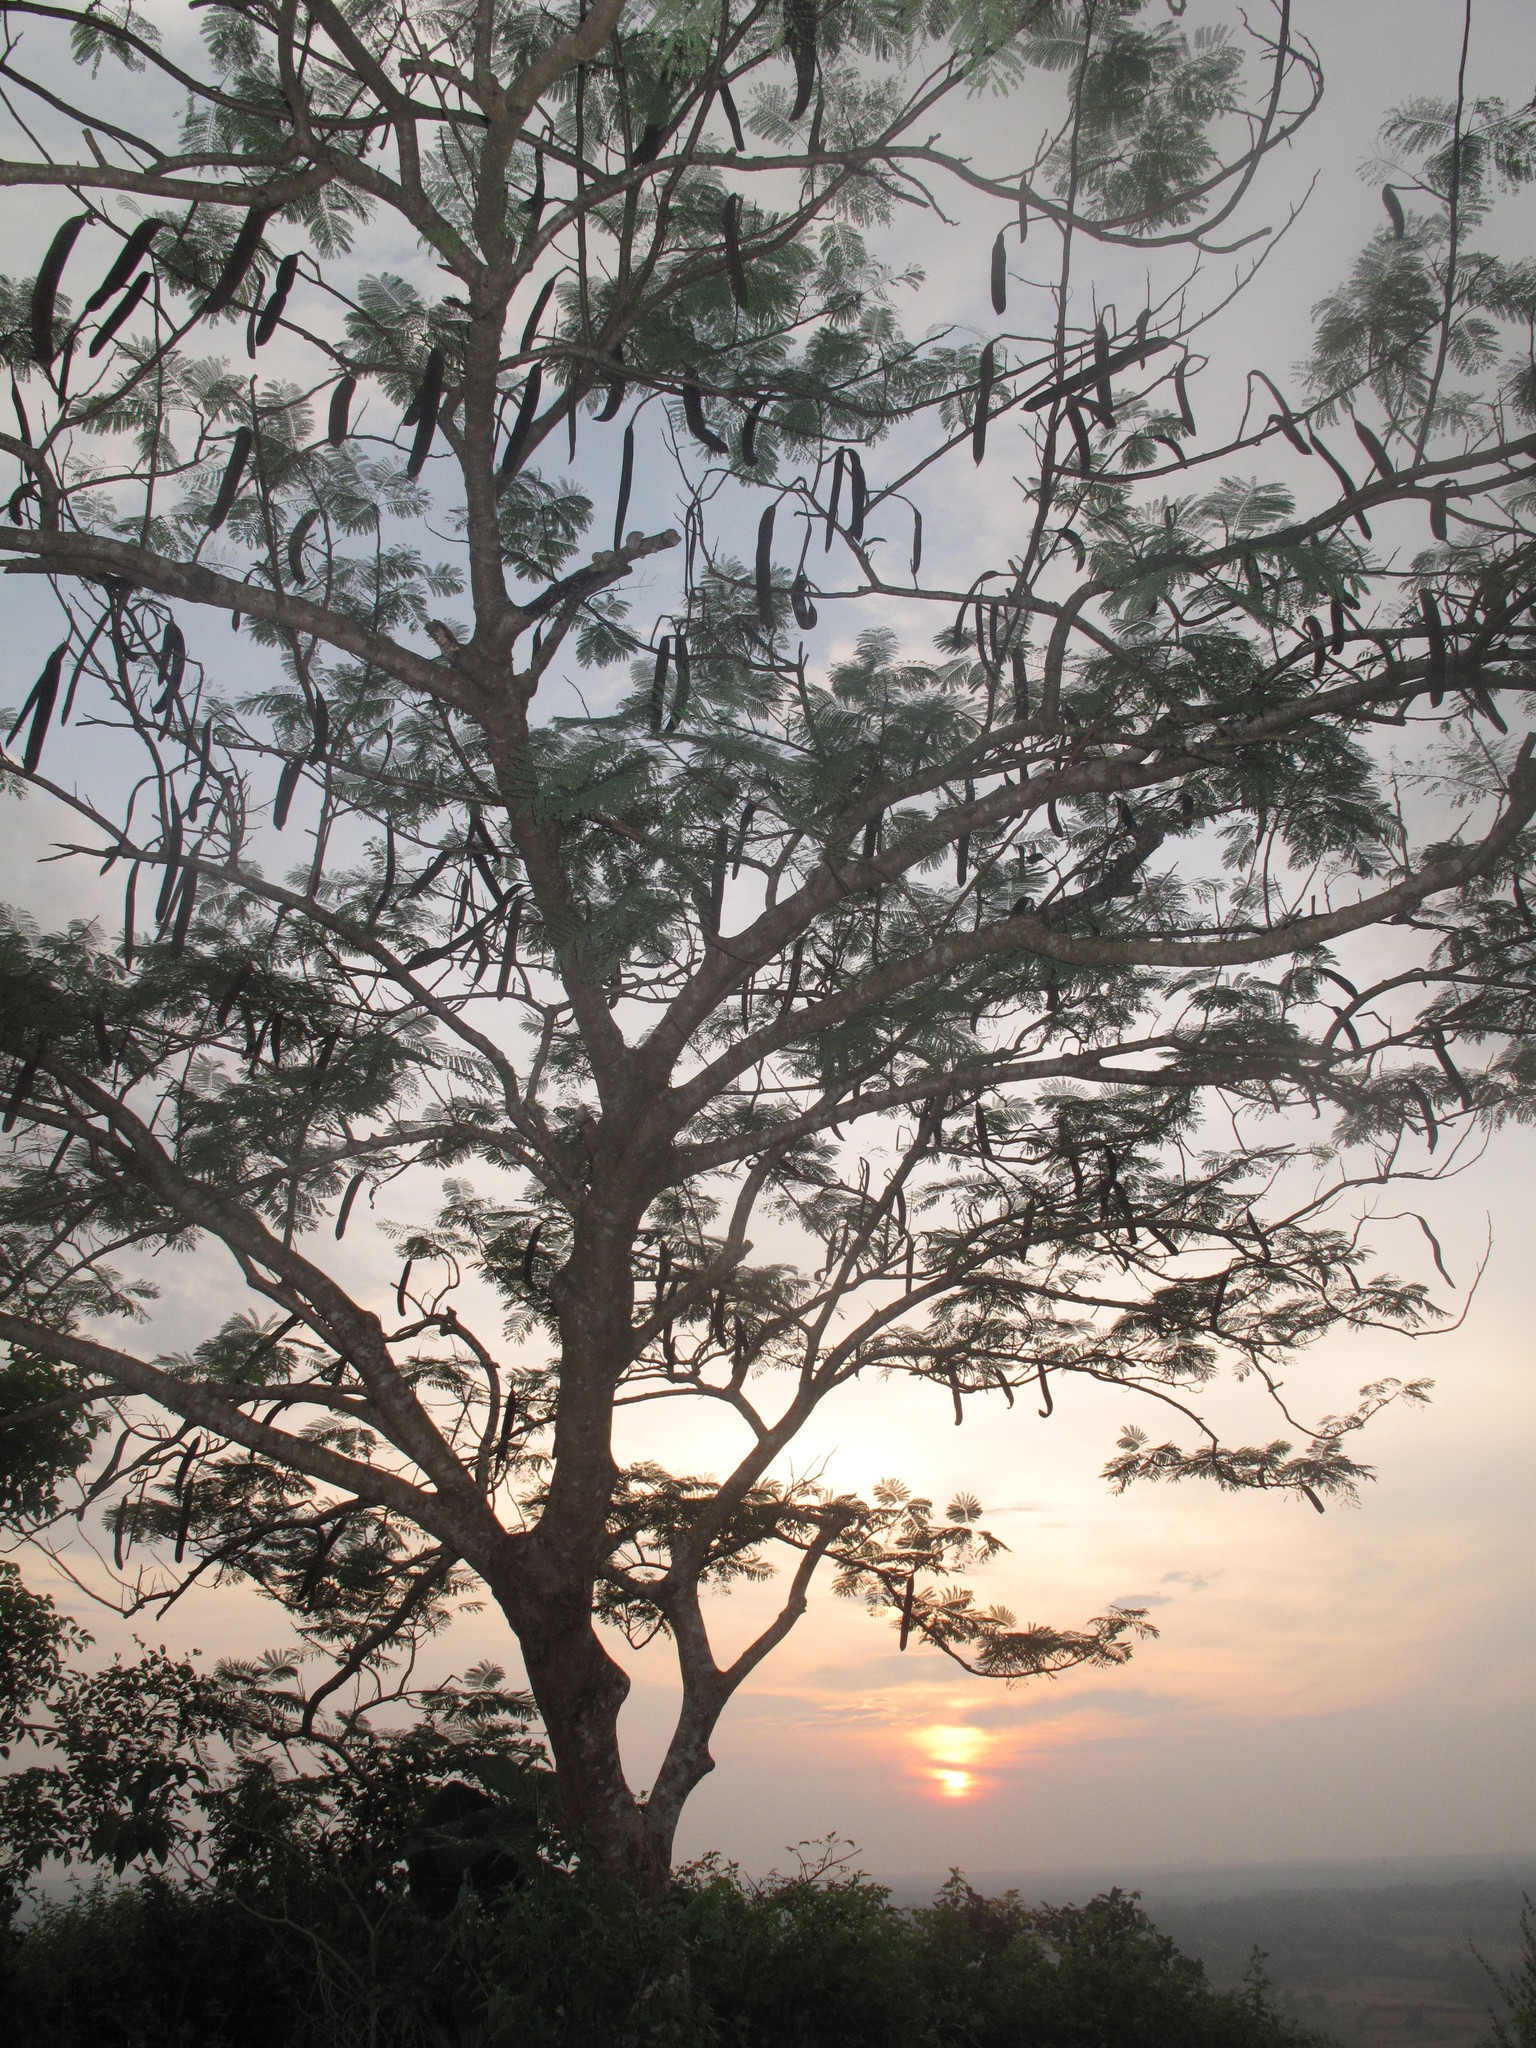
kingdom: Plantae
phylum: Tracheophyta
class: Magnoliopsida
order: Fabales
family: Fabaceae
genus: Delonix
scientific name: Delonix regia
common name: Royal poinciana
